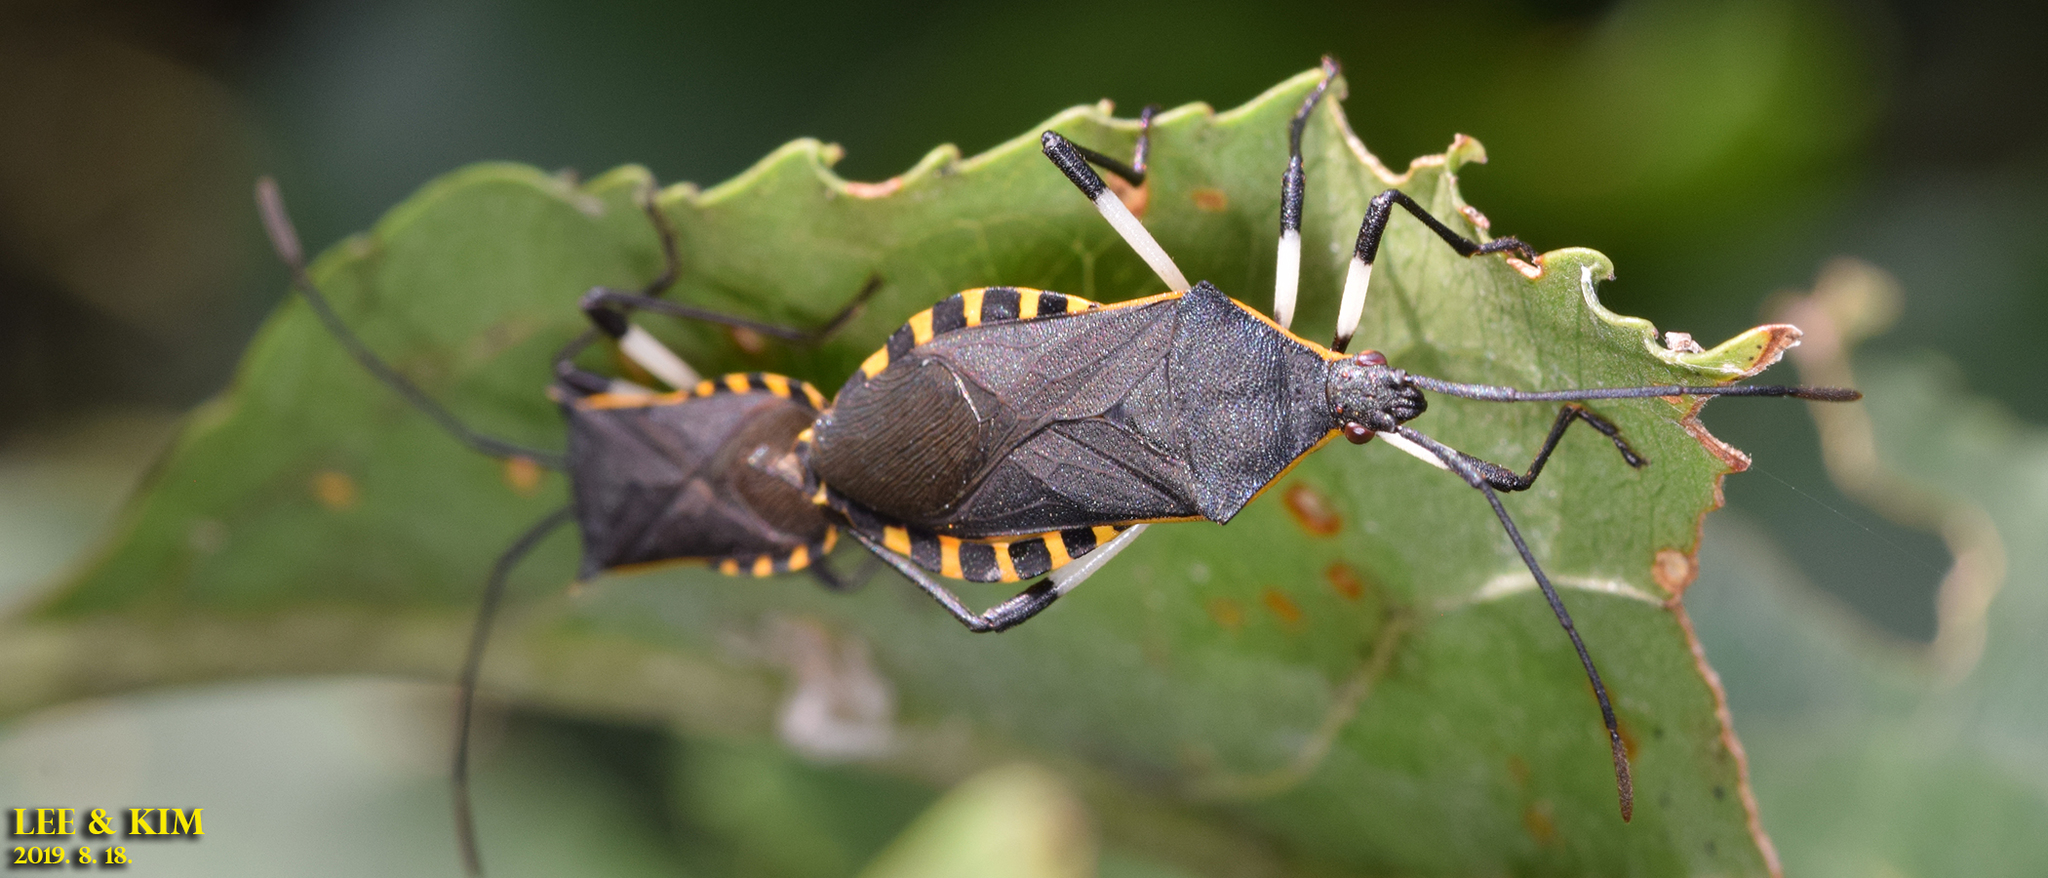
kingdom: Animalia
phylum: Arthropoda
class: Insecta
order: Hemiptera
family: Coreidae
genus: Plinachtus
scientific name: Plinachtus bicoloripes
